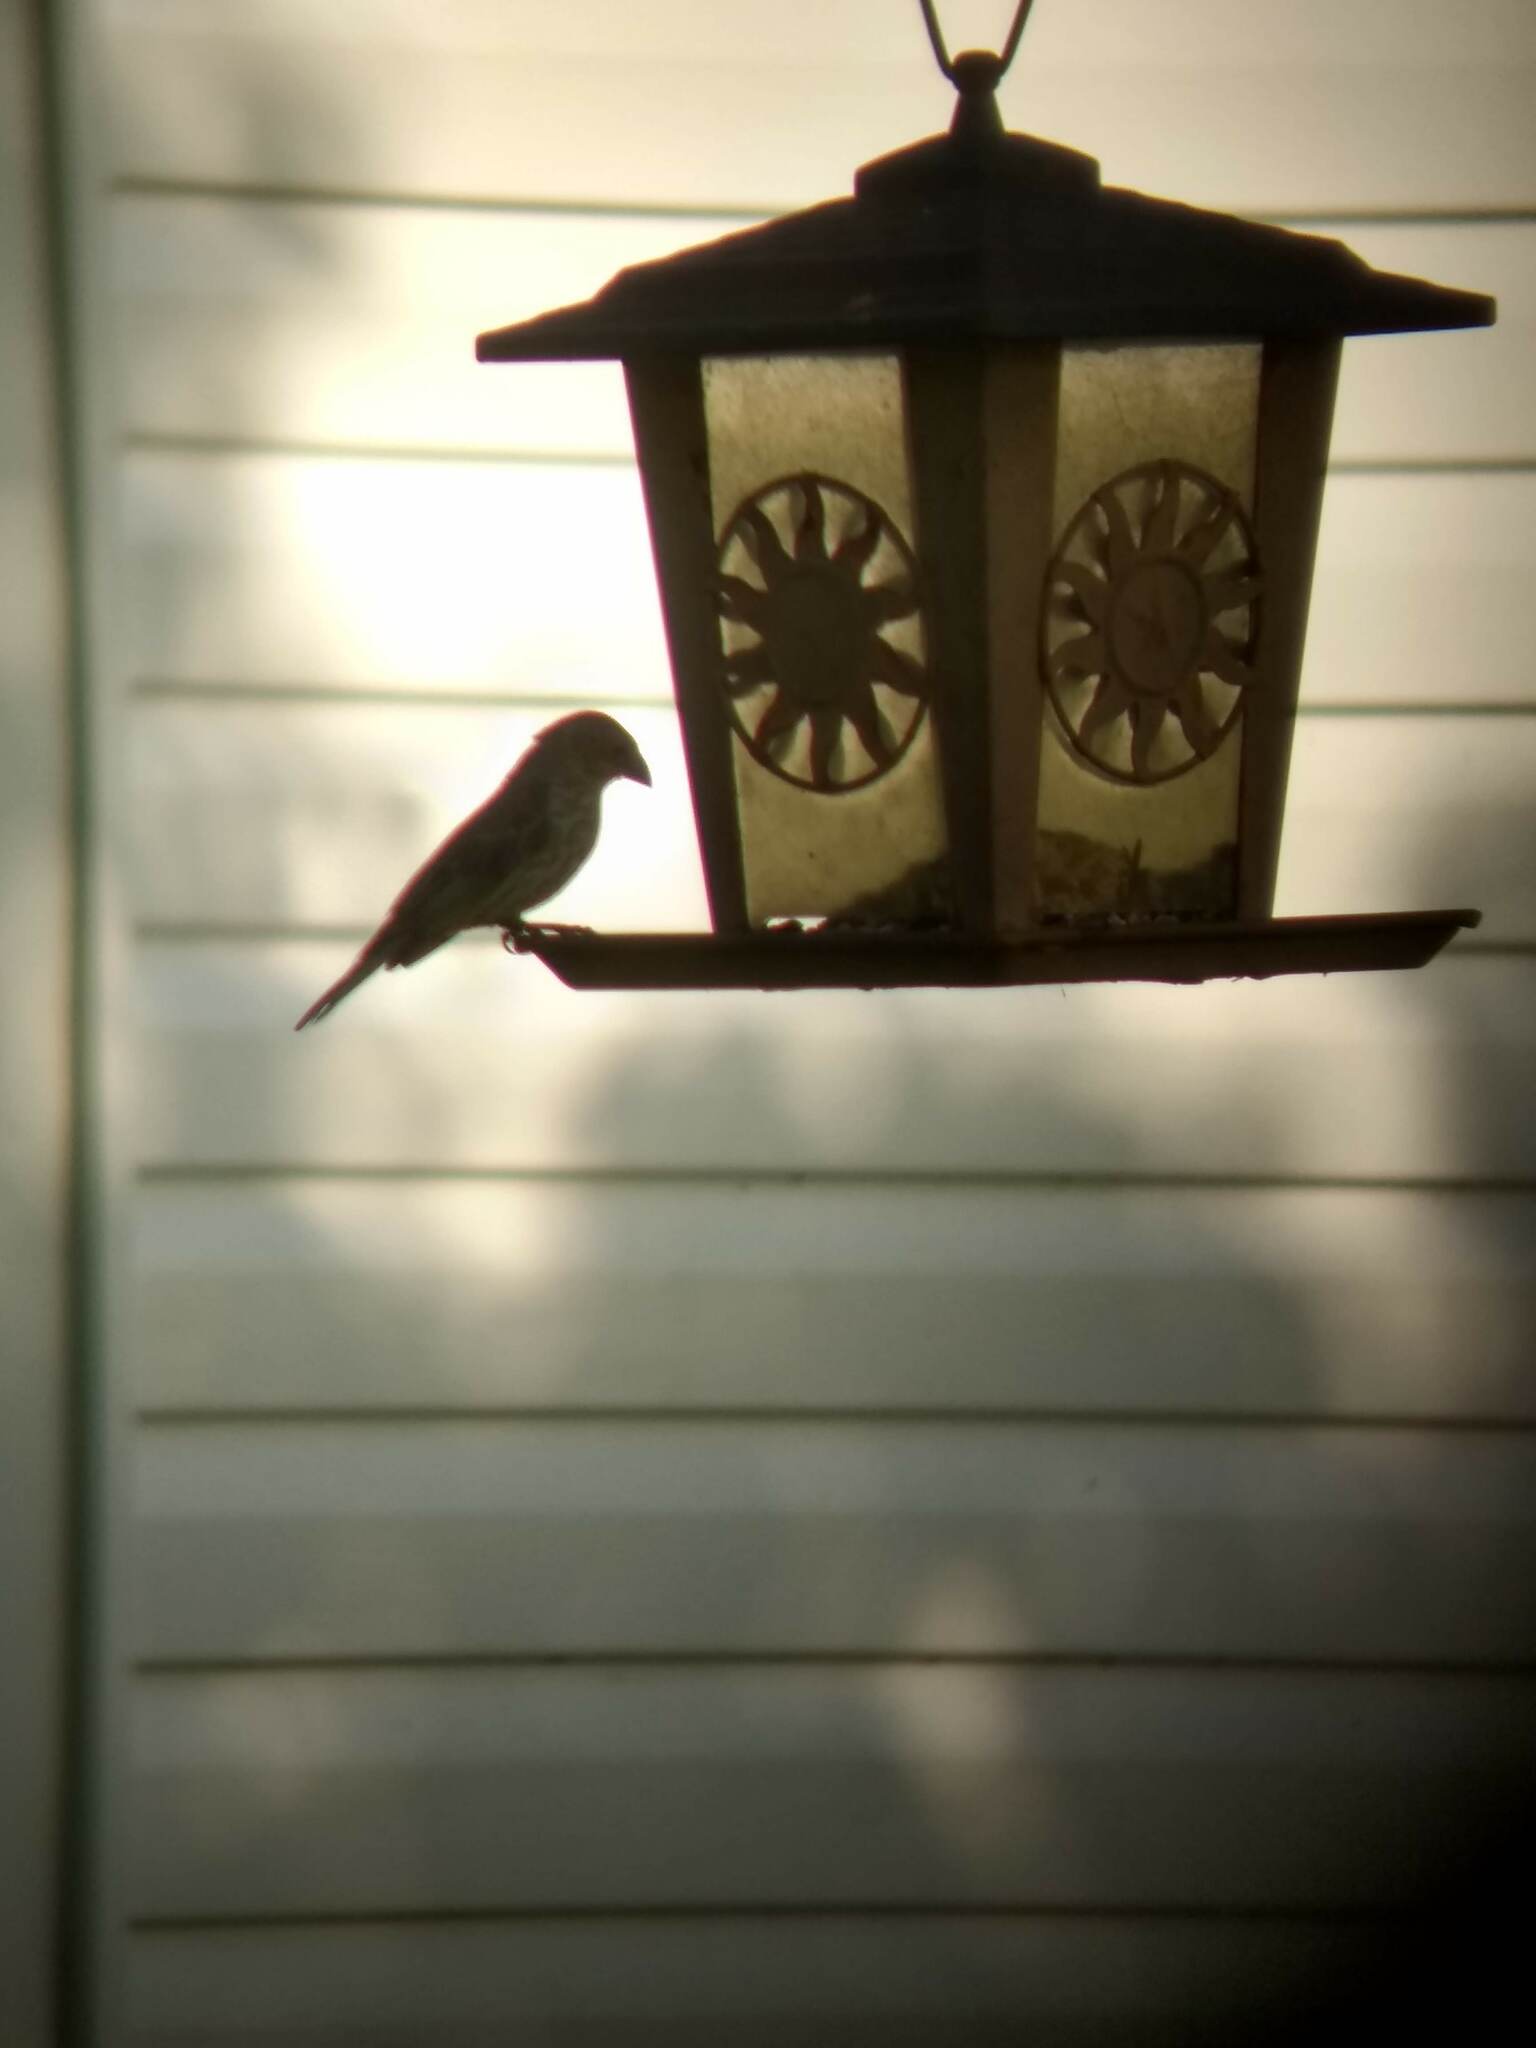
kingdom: Animalia
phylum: Chordata
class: Aves
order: Passeriformes
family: Fringillidae
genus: Haemorhous
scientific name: Haemorhous mexicanus
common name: House finch
